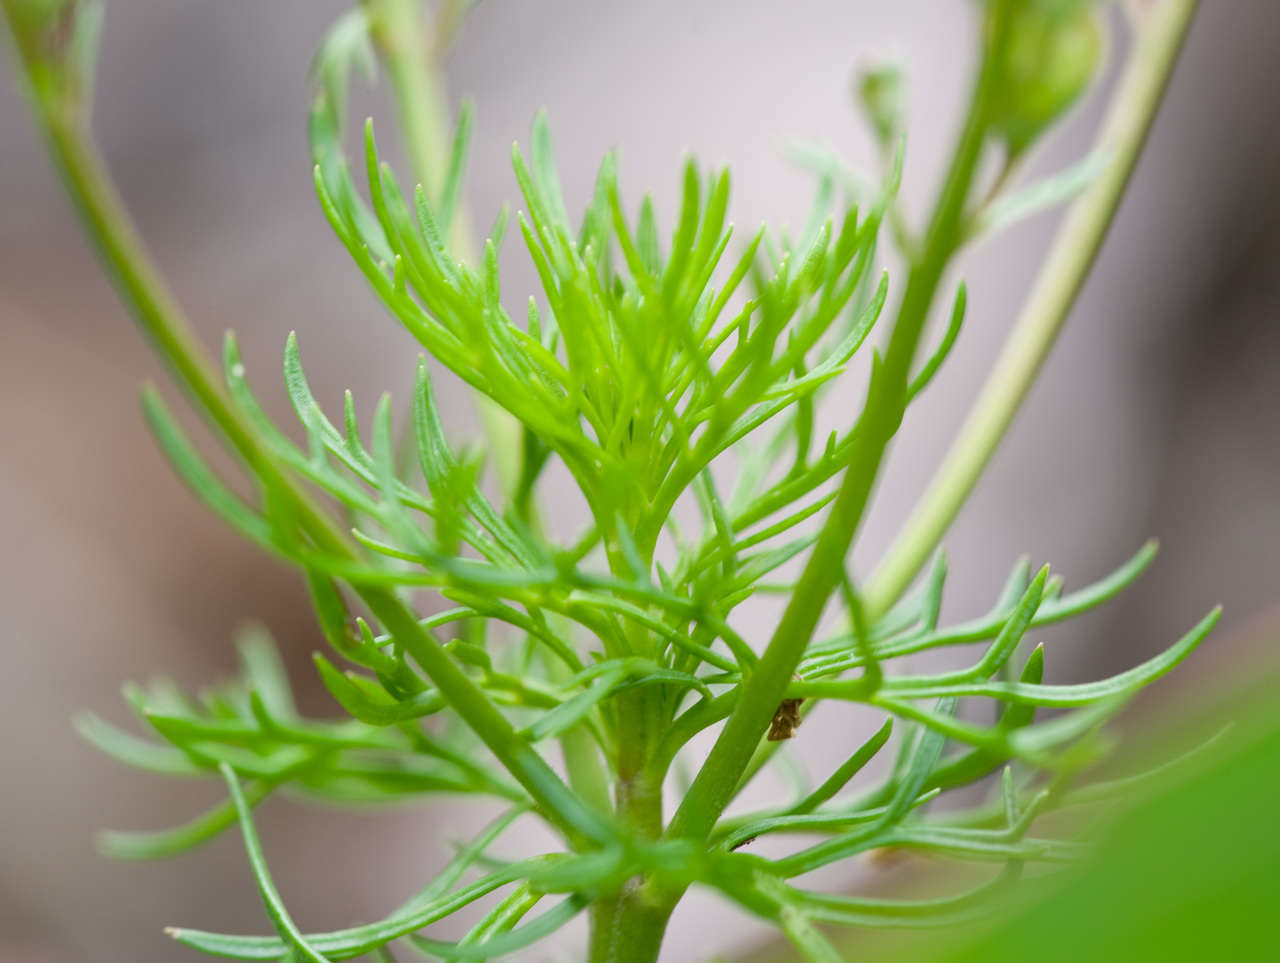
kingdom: Plantae
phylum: Tracheophyta
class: Magnoliopsida
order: Lamiales
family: Plantaginaceae
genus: Veronica
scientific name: Veronica nivea
